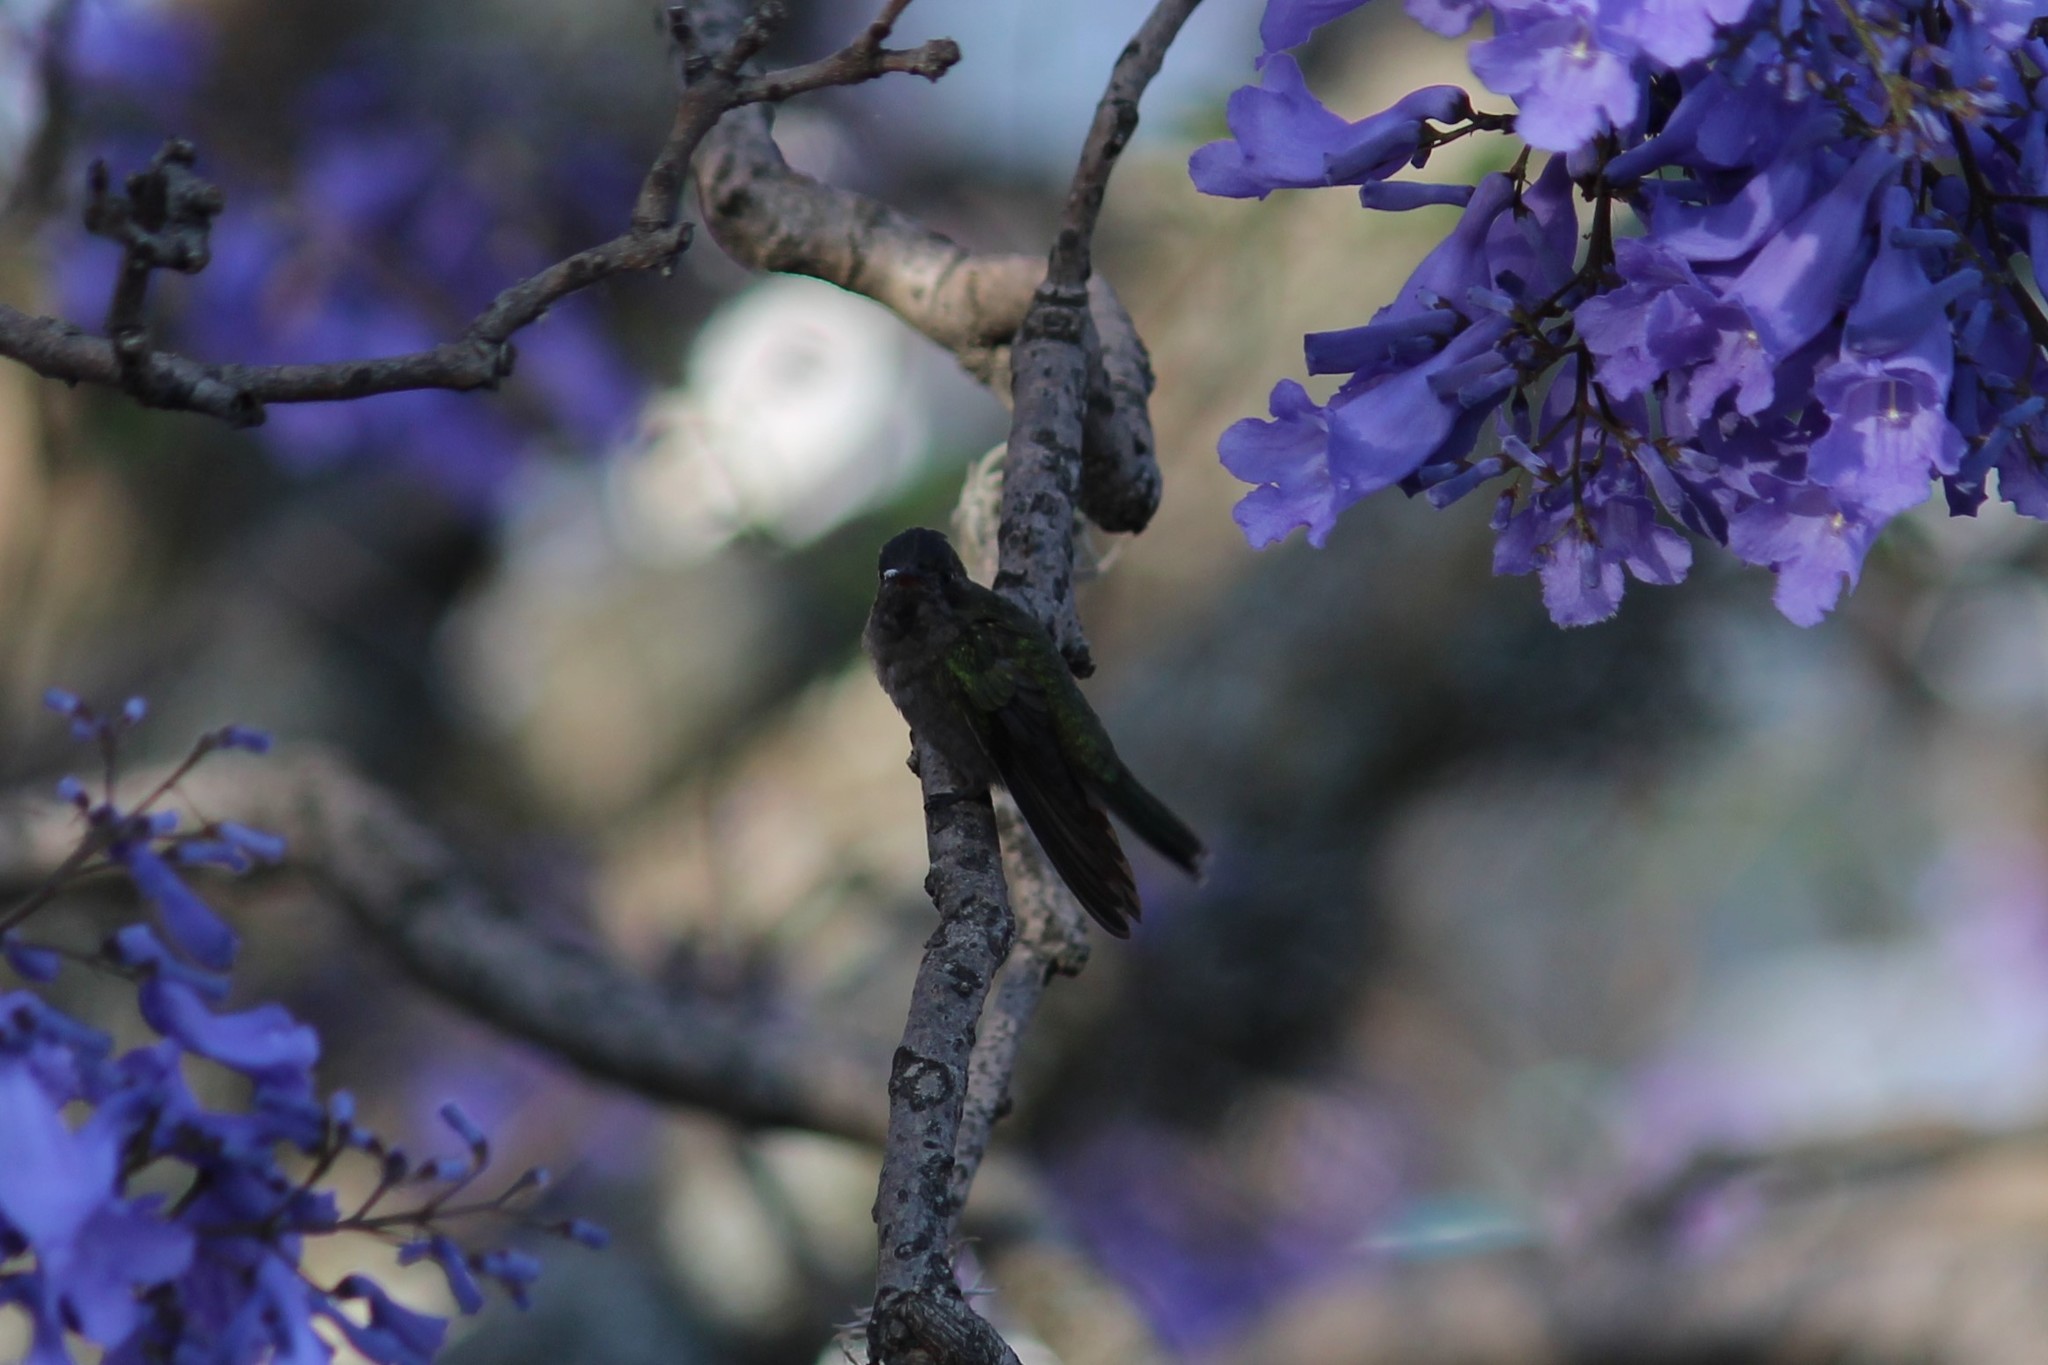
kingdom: Animalia
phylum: Chordata
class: Aves
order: Apodiformes
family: Trochilidae
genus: Eugenes
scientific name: Eugenes fulgens
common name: Magnificent hummingbird
